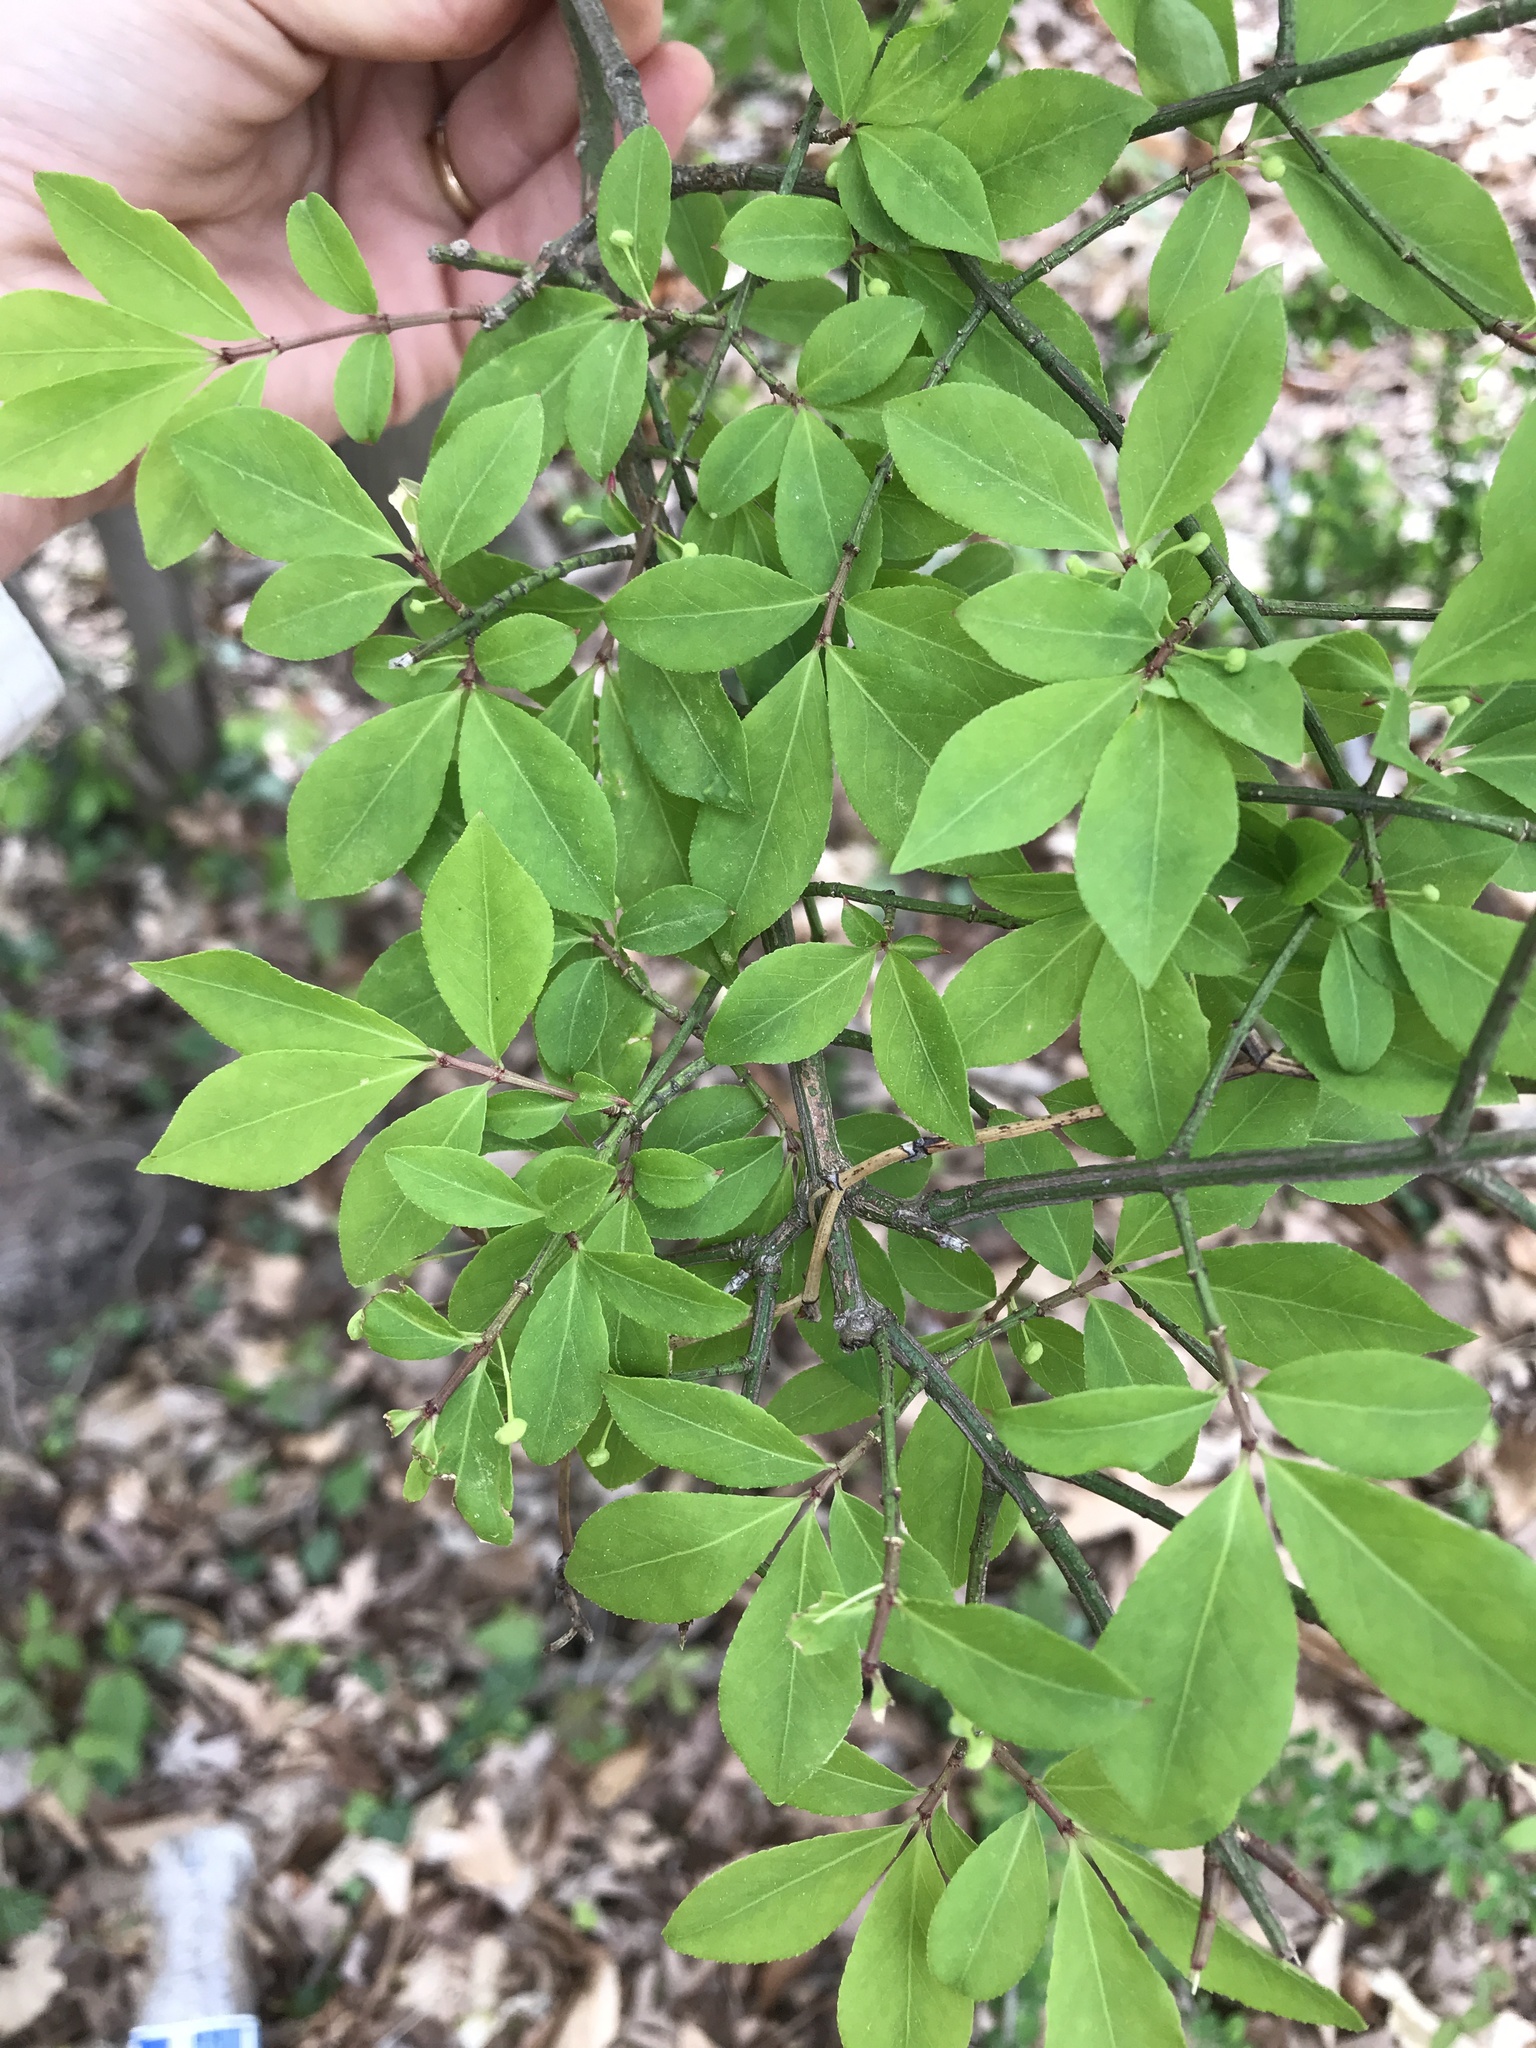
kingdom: Plantae
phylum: Tracheophyta
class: Magnoliopsida
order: Celastrales
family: Celastraceae
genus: Euonymus
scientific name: Euonymus alatus
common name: Winged euonymus
